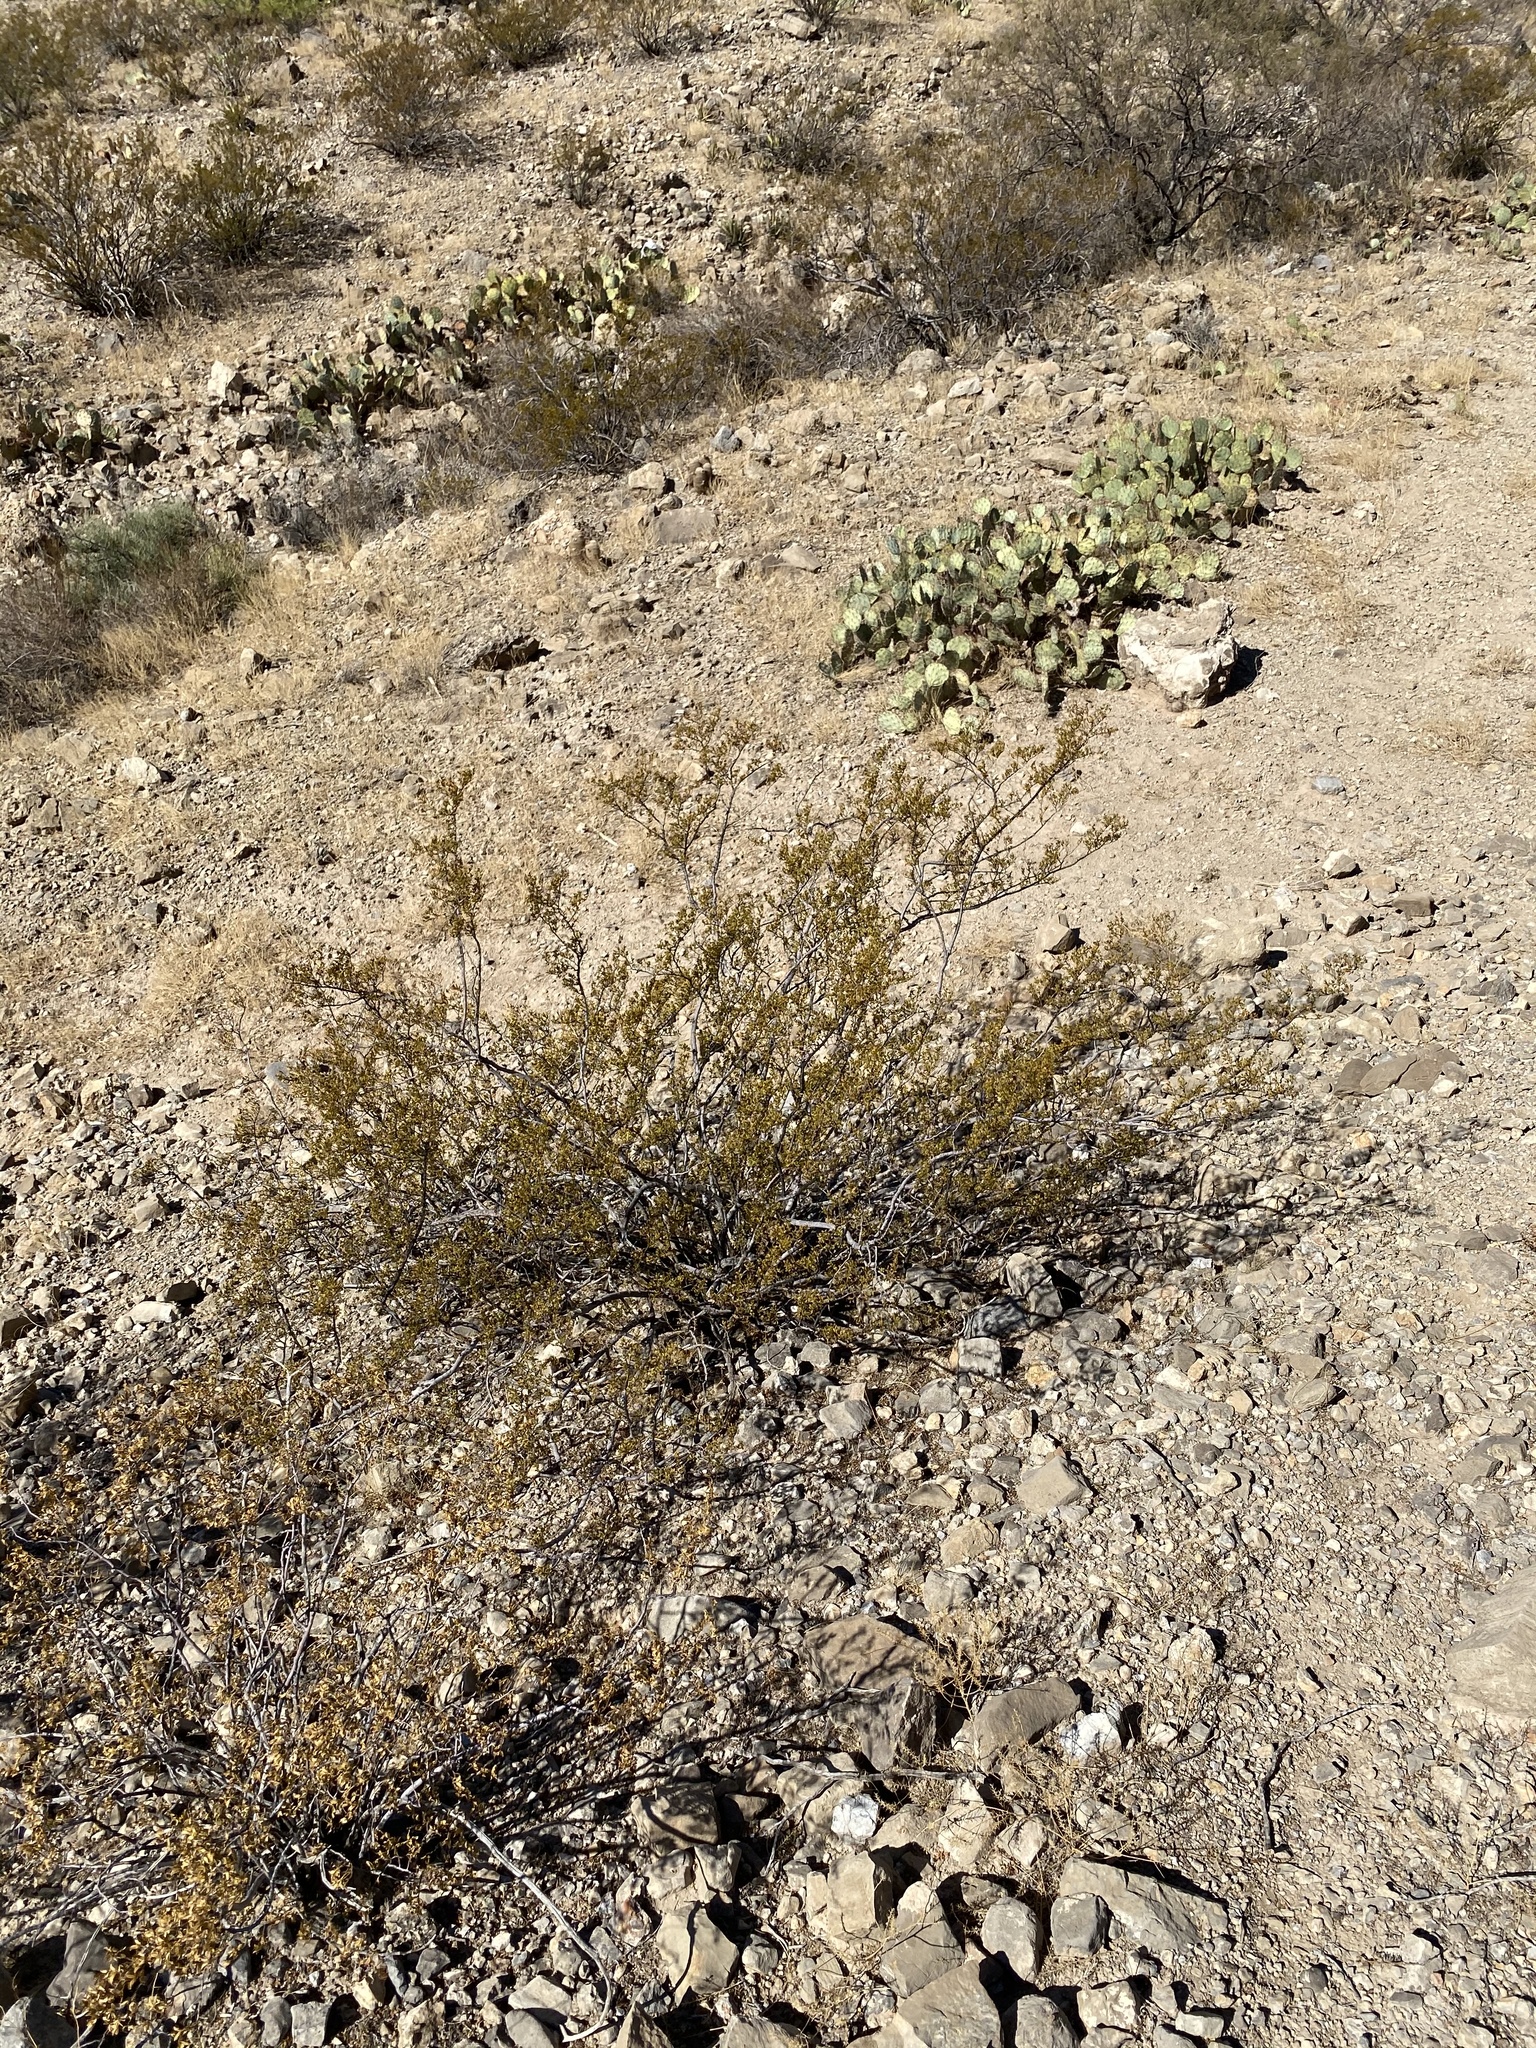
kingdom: Plantae
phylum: Tracheophyta
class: Magnoliopsida
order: Zygophyllales
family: Zygophyllaceae
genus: Larrea
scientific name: Larrea tridentata
